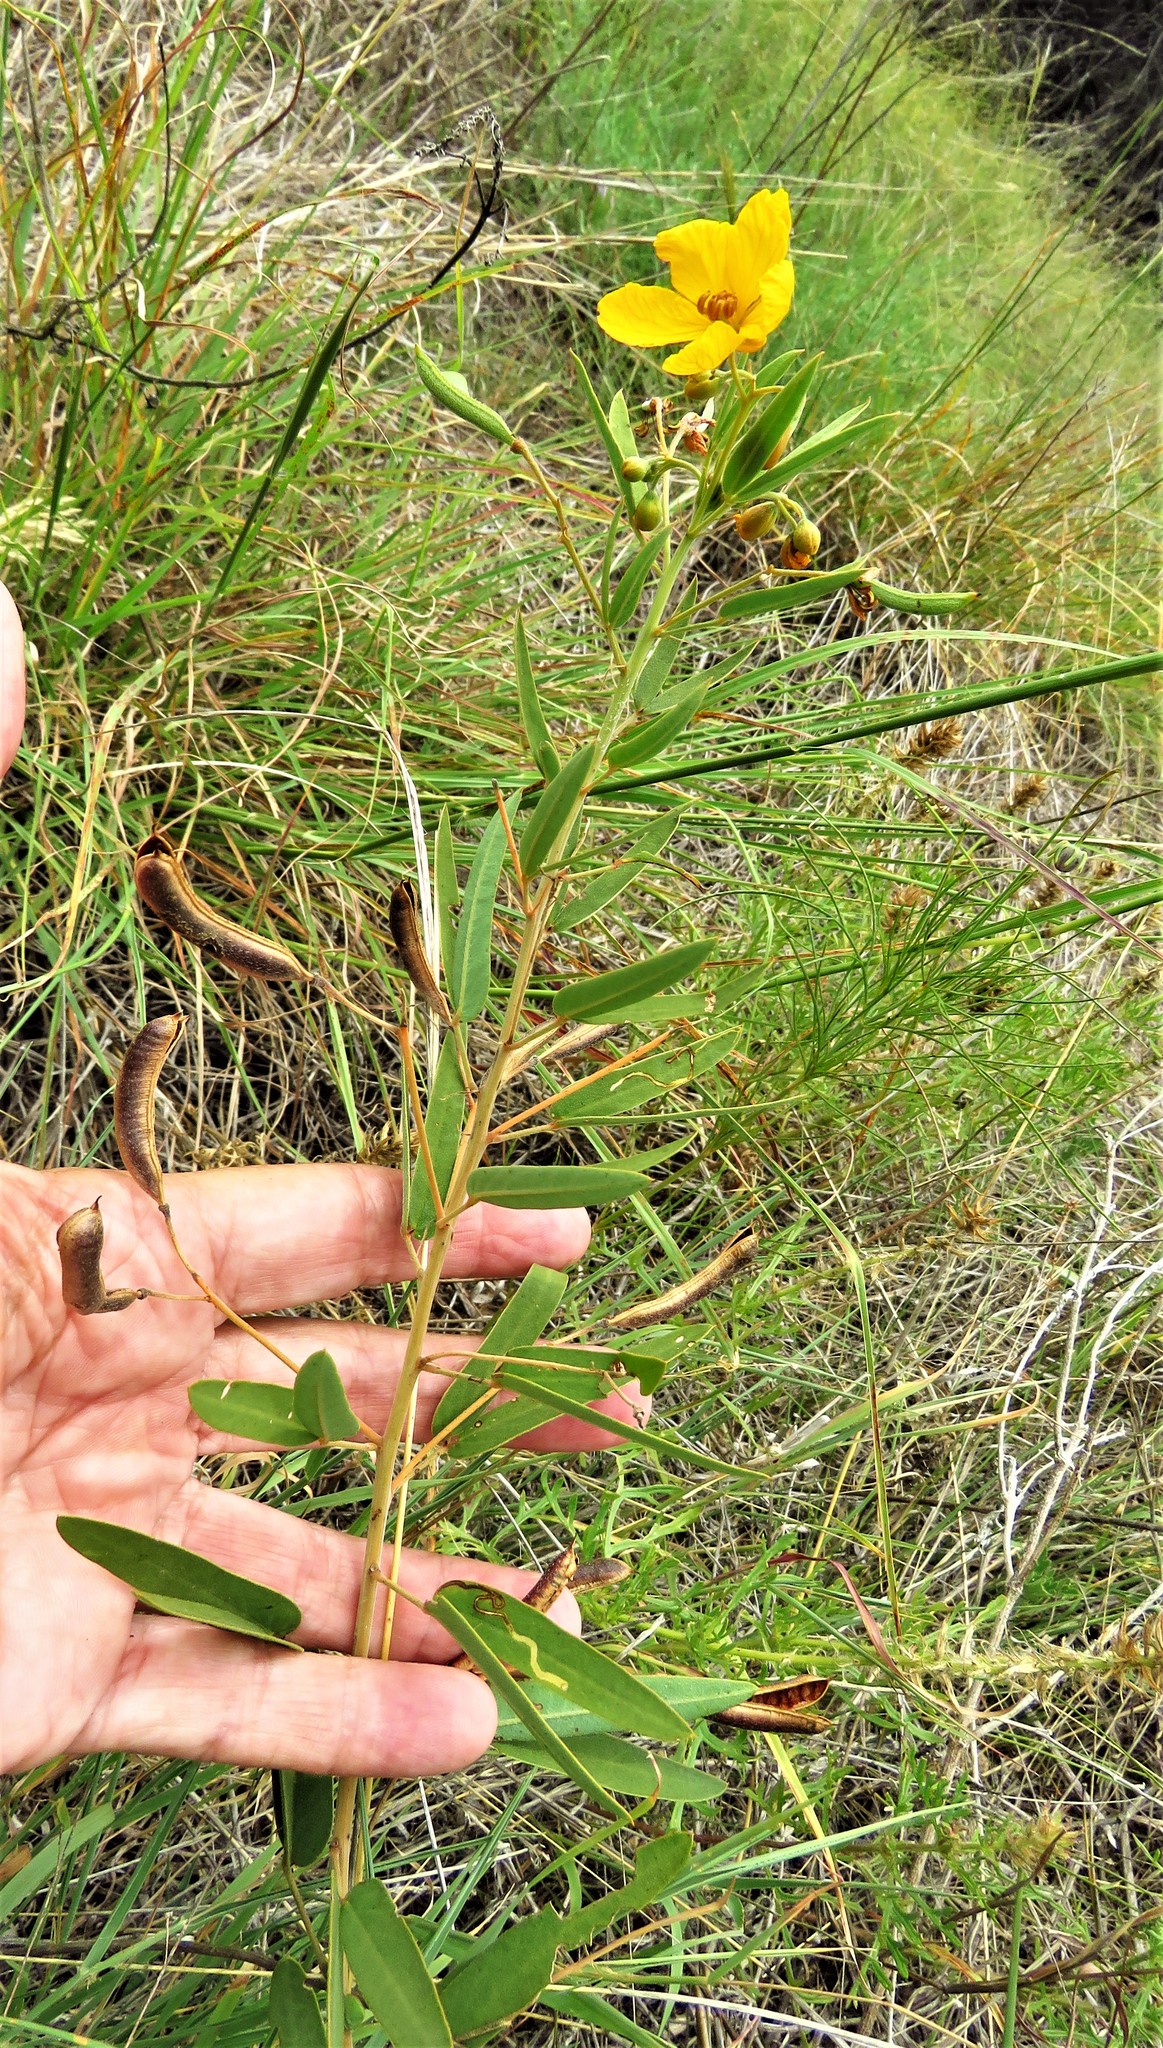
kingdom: Plantae
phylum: Tracheophyta
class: Magnoliopsida
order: Fabales
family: Fabaceae
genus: Senna
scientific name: Senna roemeriana
